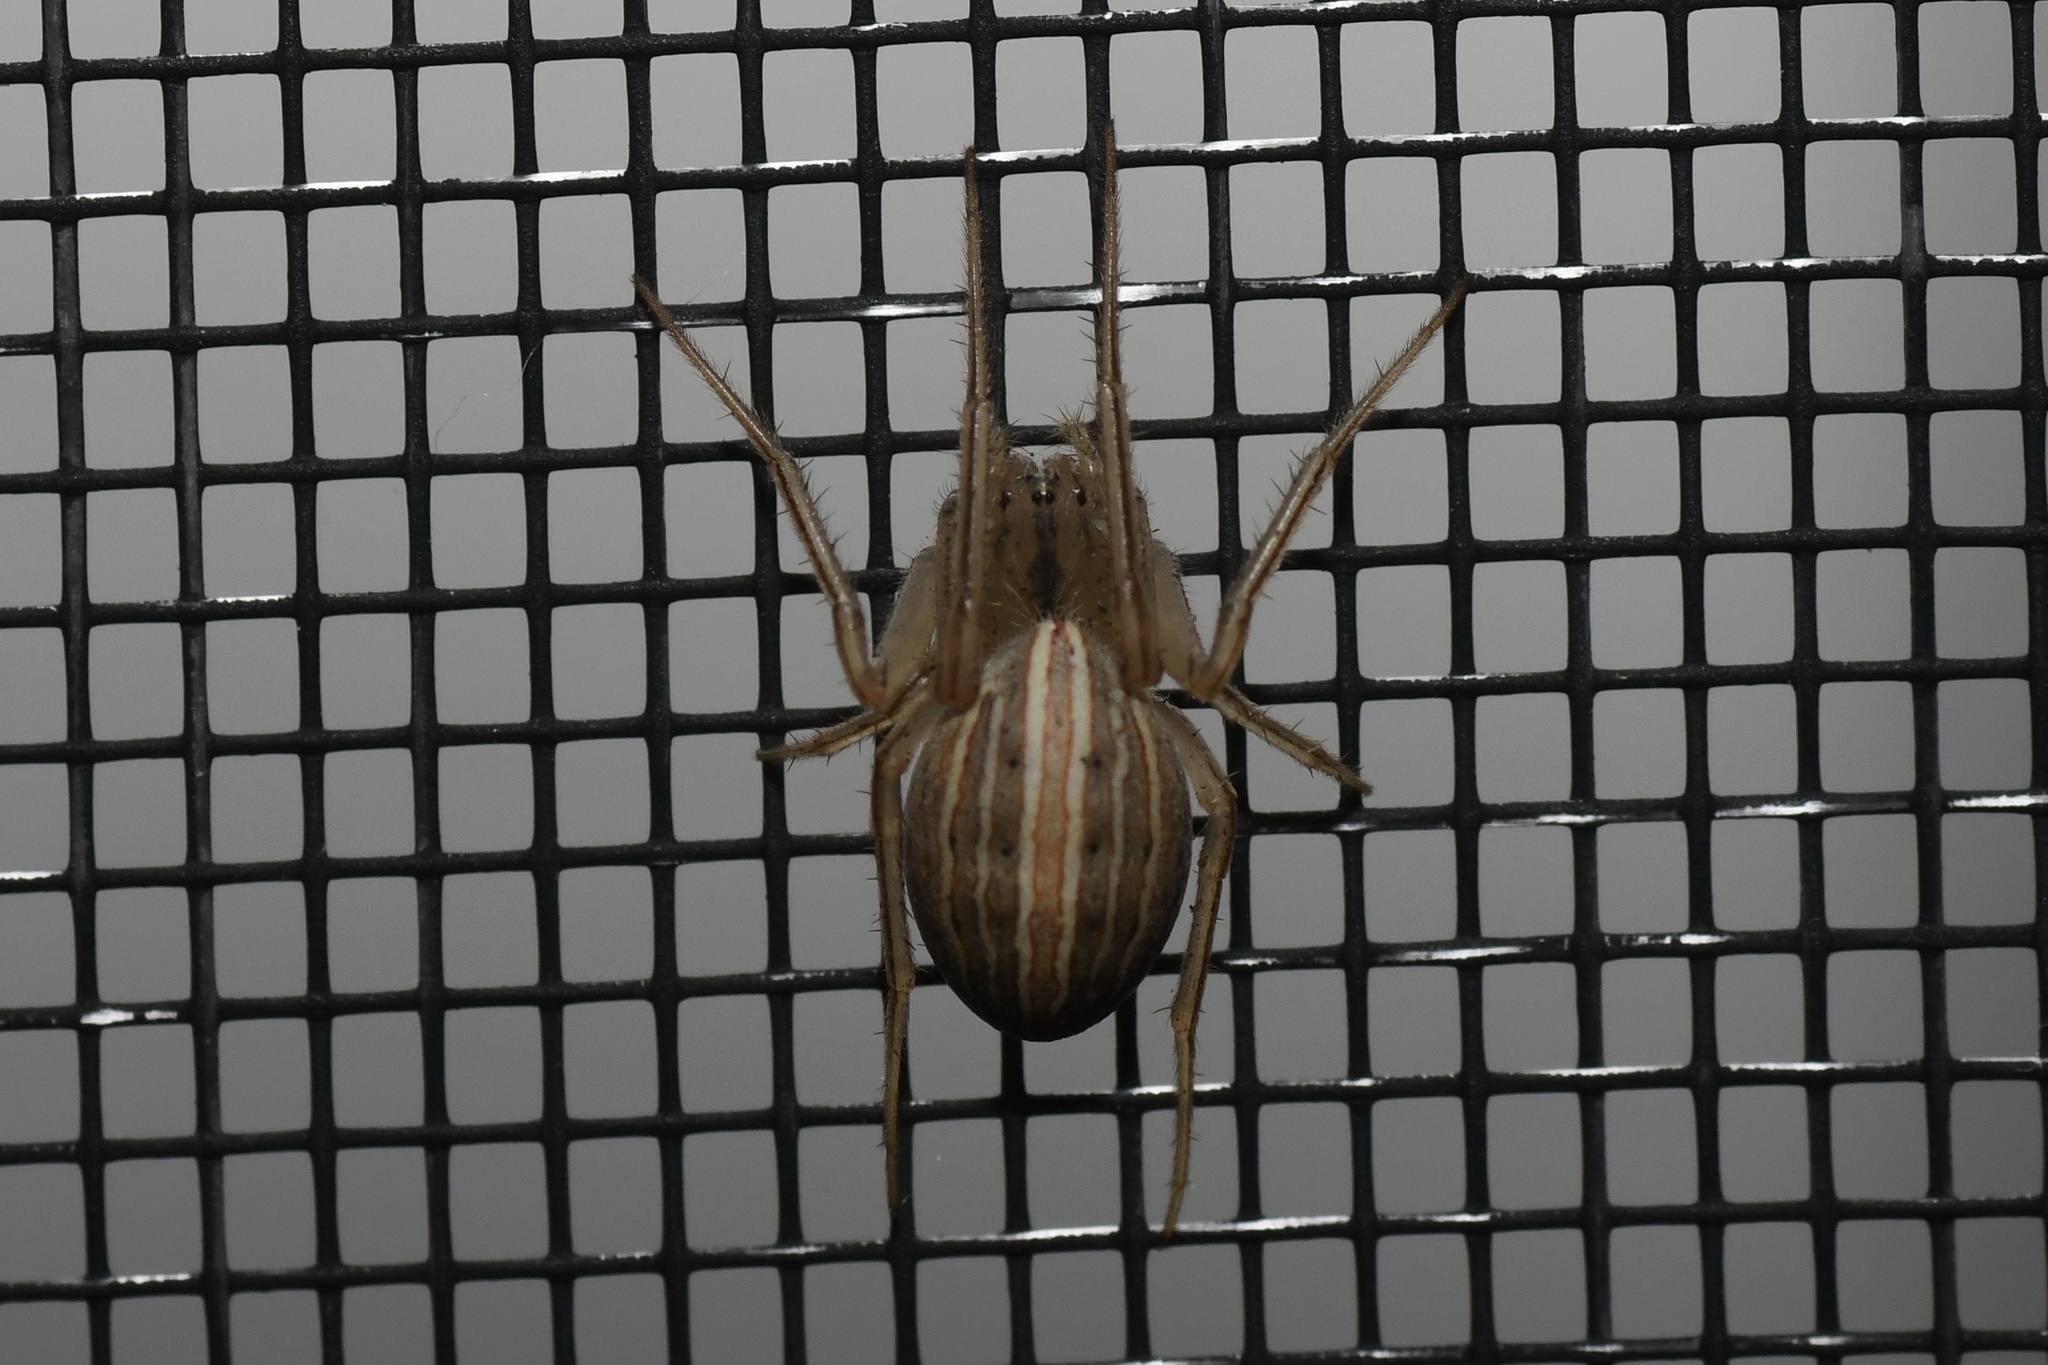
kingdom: Animalia
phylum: Arthropoda
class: Arachnida
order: Araneae
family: Araneidae
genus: Larinia
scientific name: Larinia borealis
